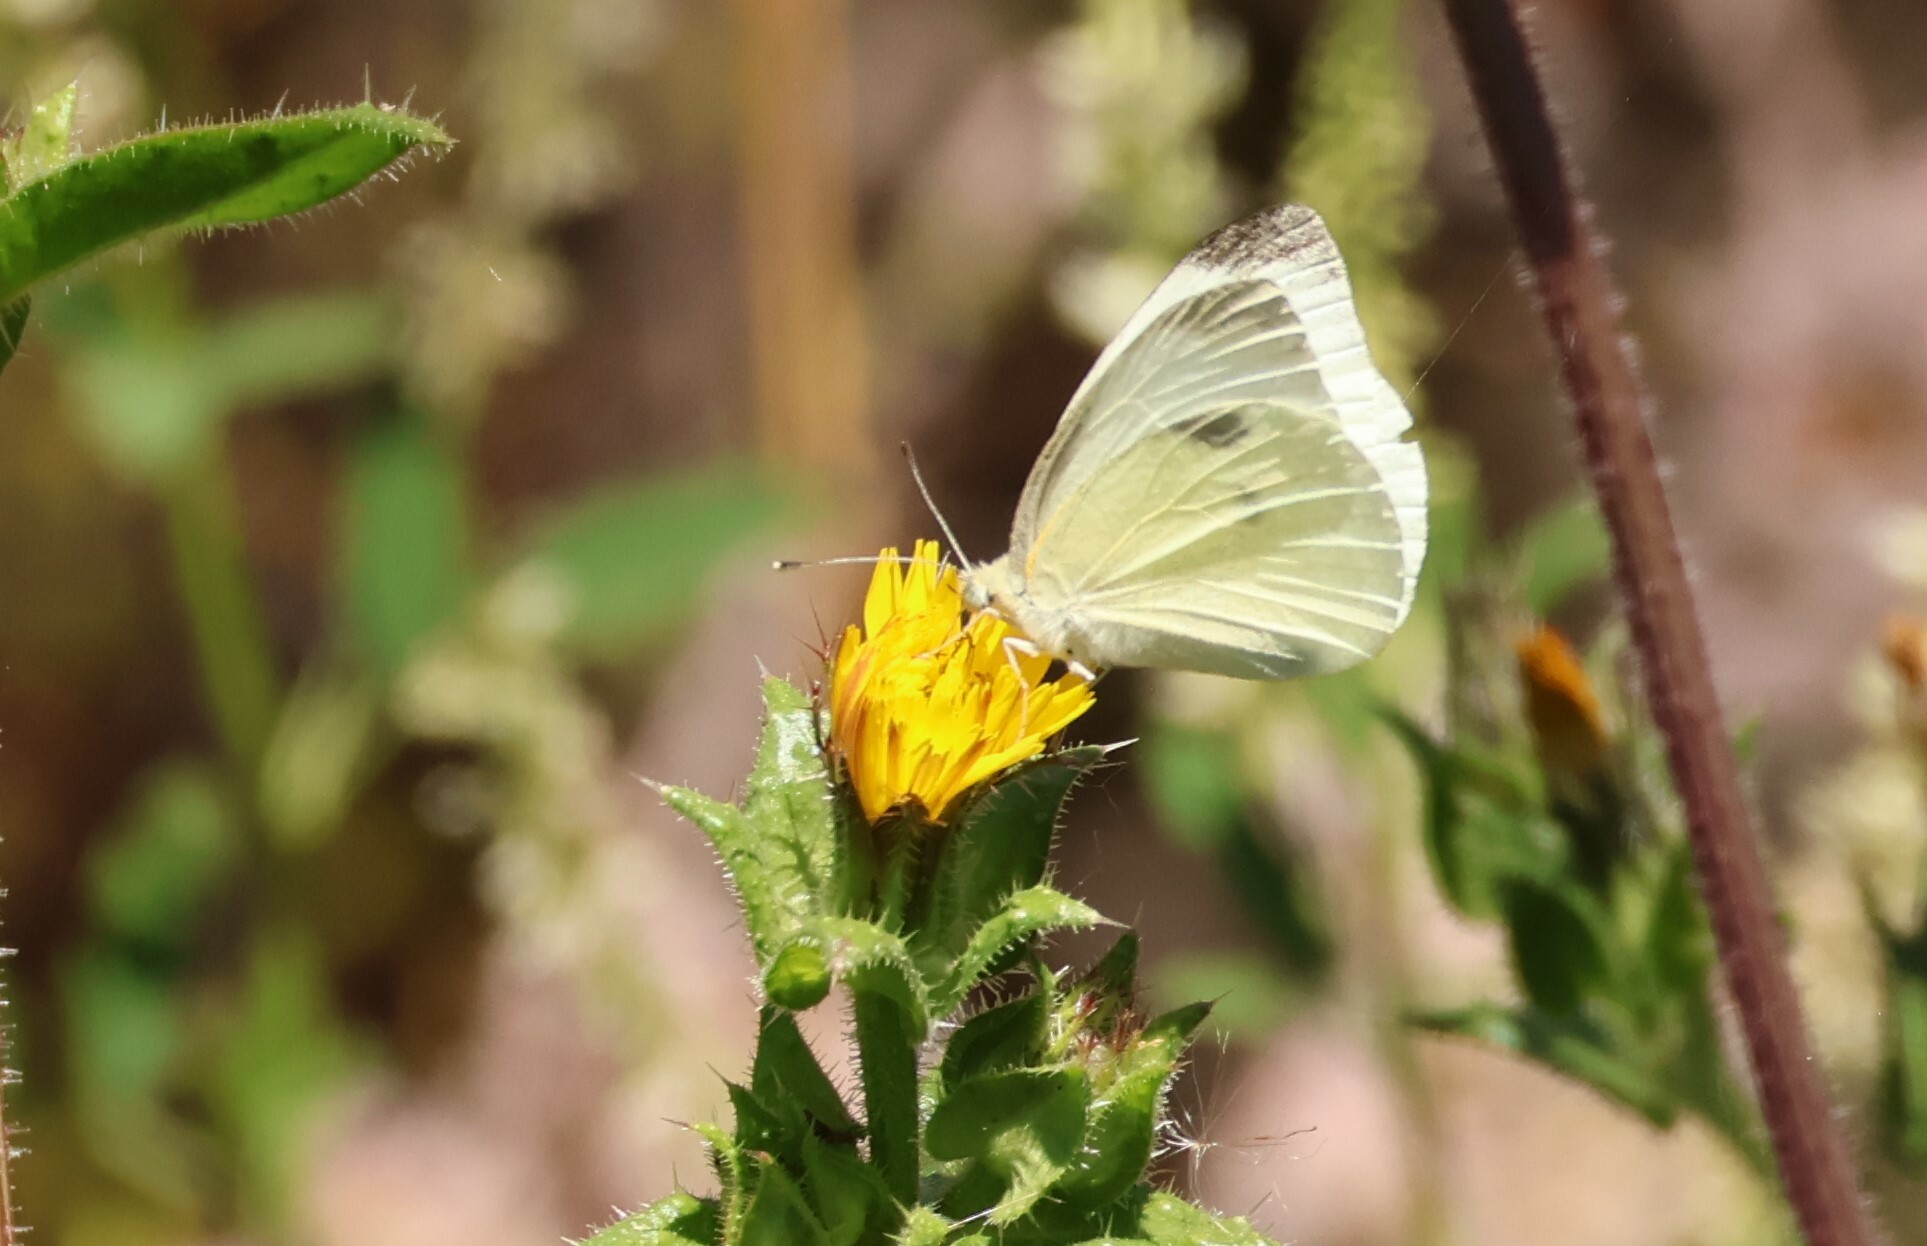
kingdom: Animalia
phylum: Arthropoda
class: Insecta
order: Lepidoptera
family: Pieridae
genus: Pieris
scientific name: Pieris rapae
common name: Small white
